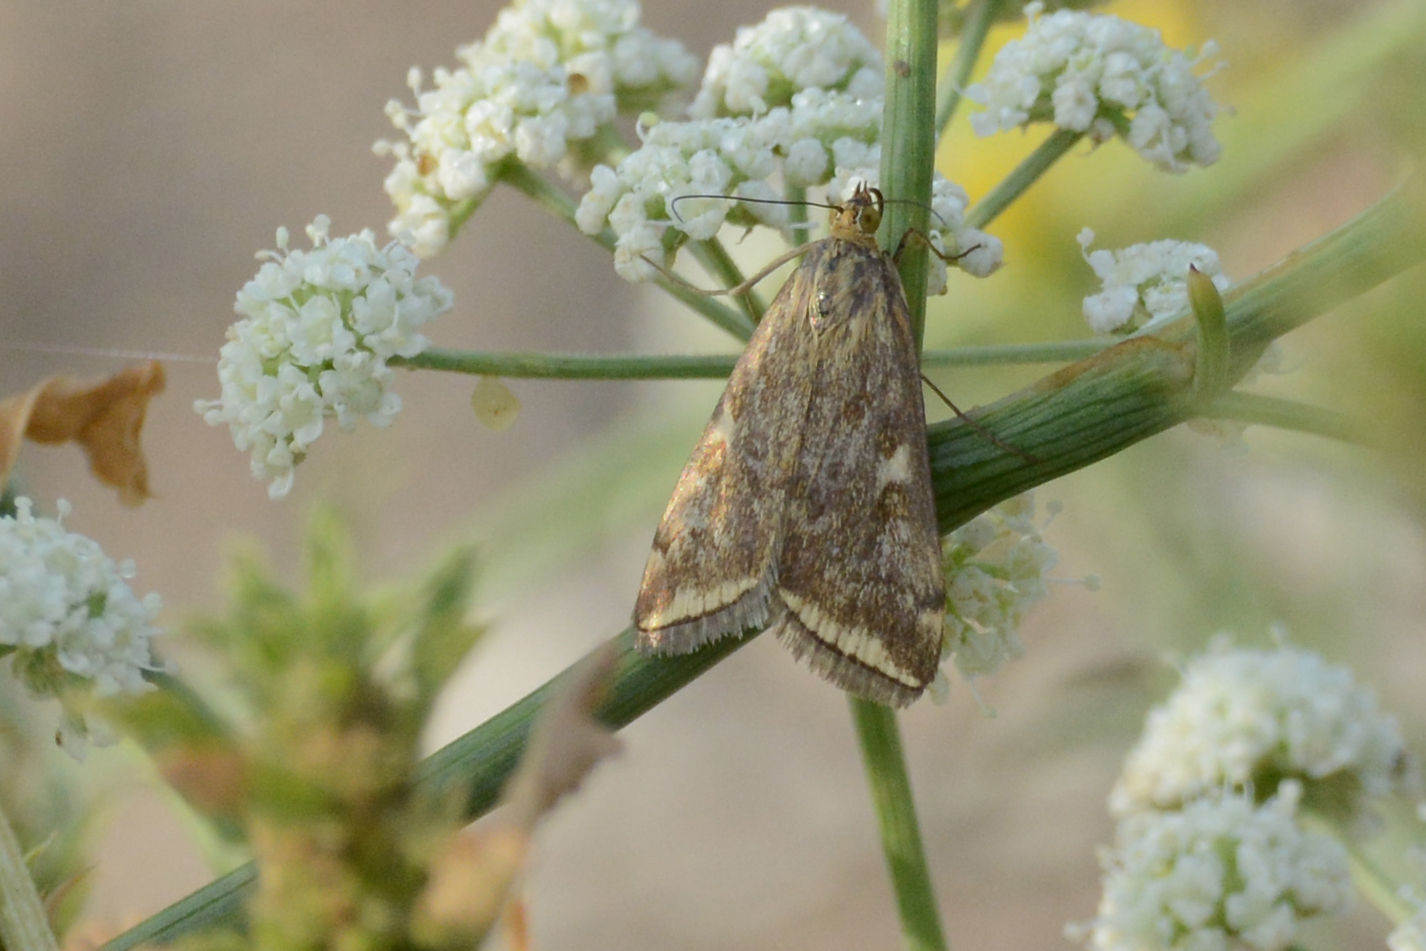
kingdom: Animalia
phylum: Arthropoda
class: Insecta
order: Lepidoptera
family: Crambidae
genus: Loxostege
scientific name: Loxostege sticticalis
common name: Crambid moth
